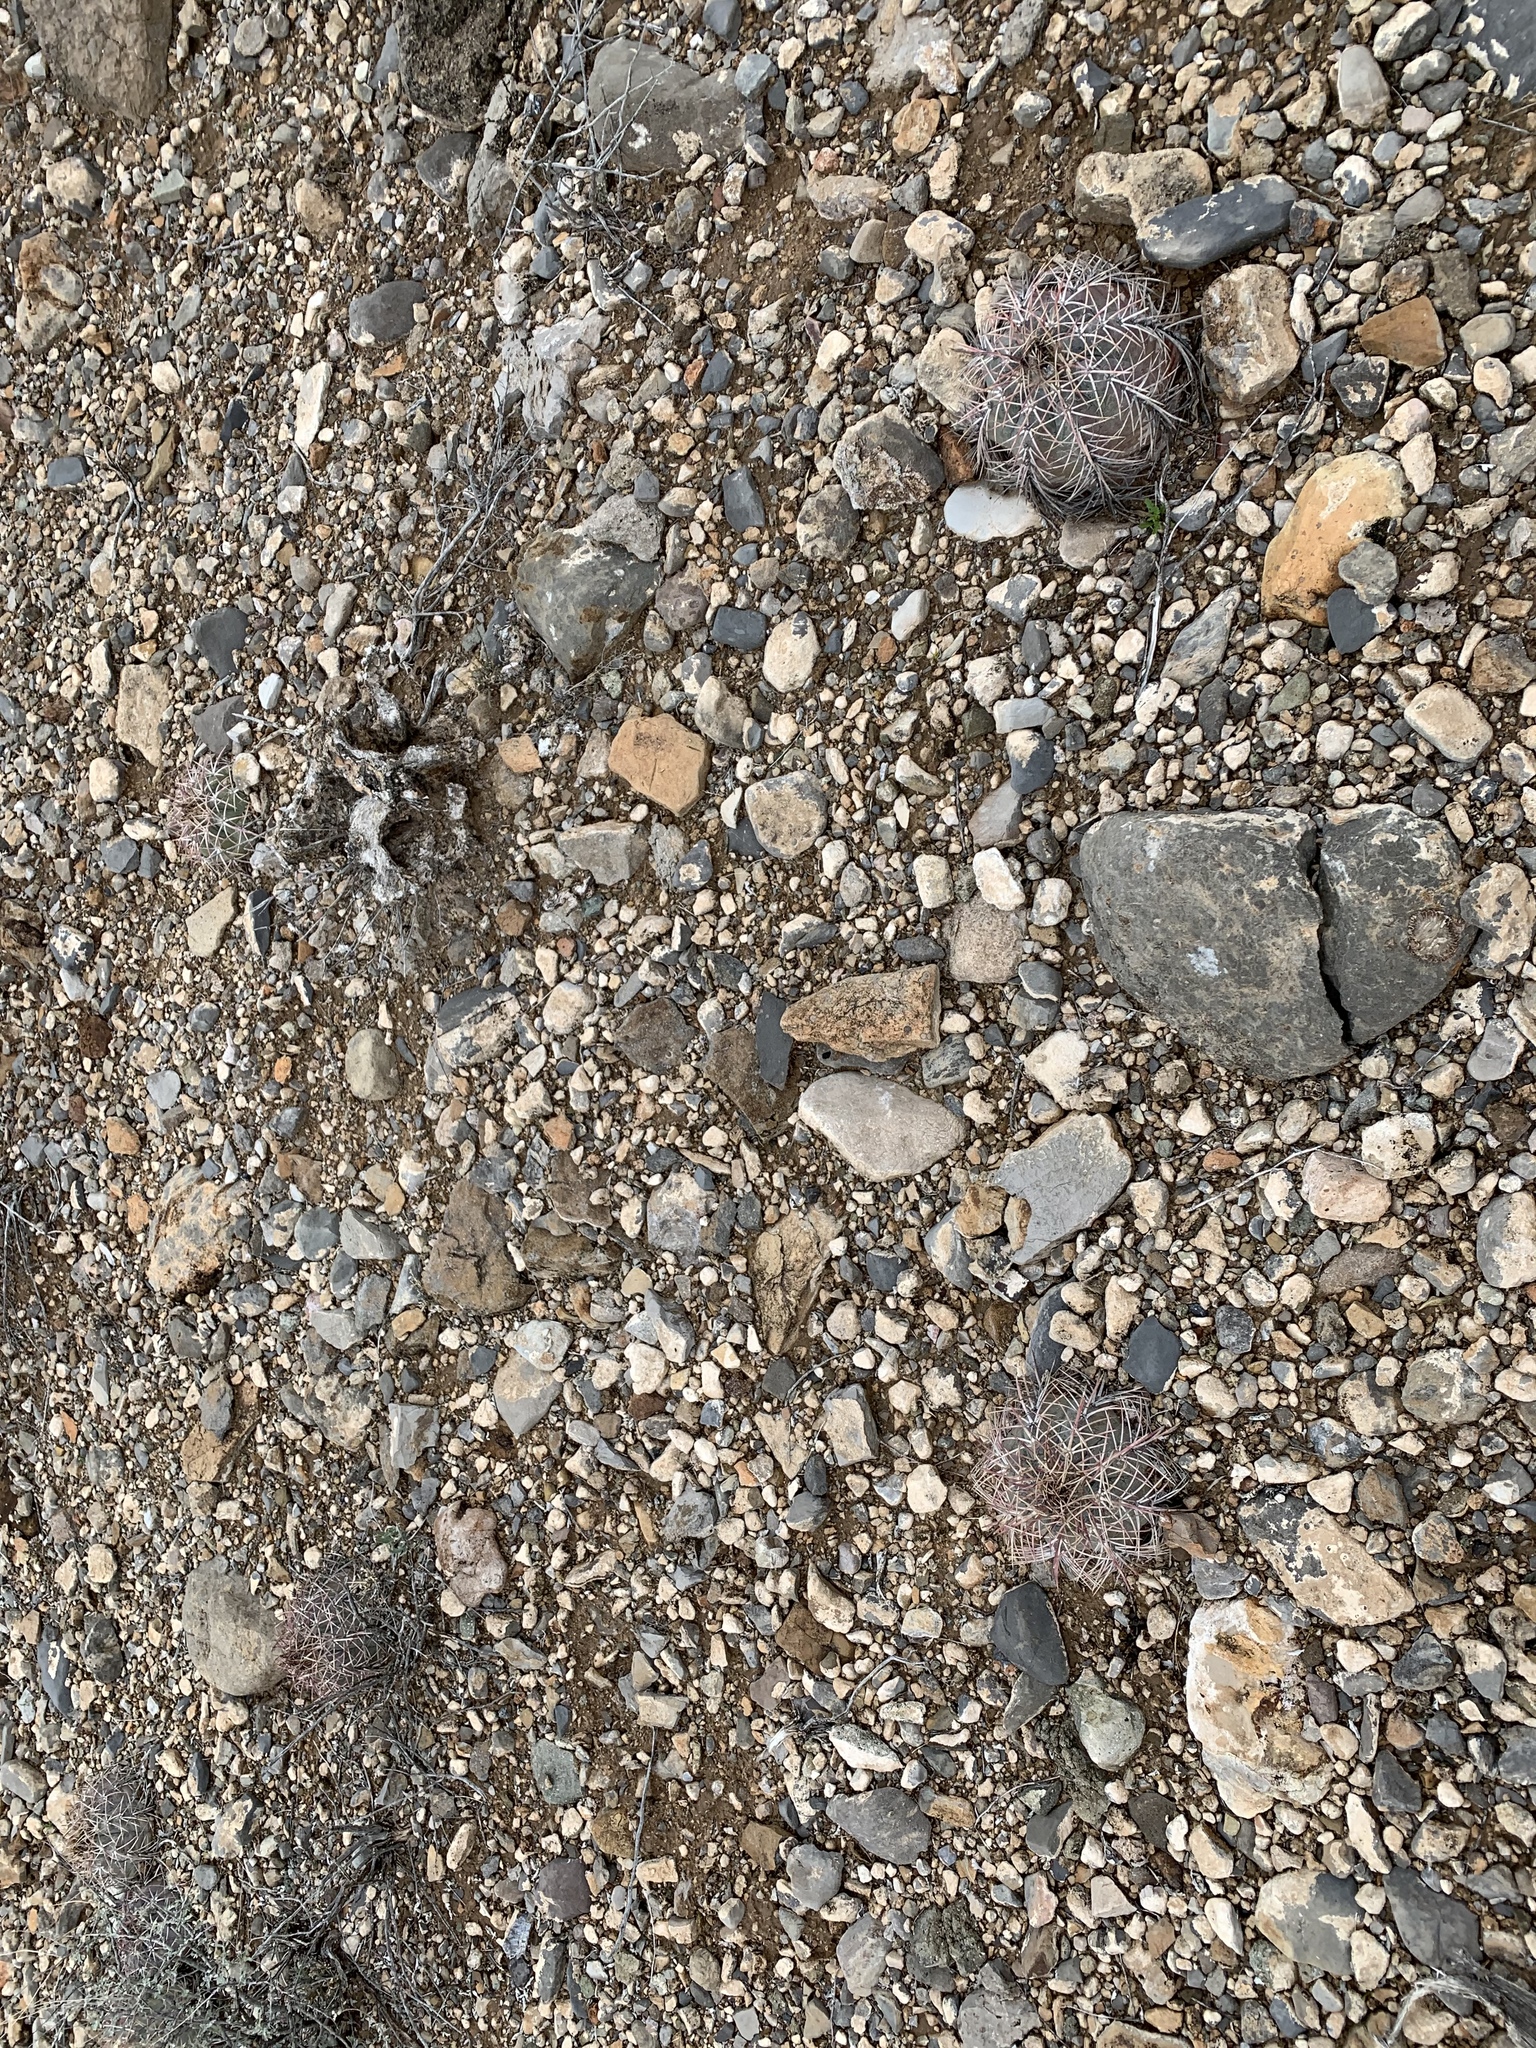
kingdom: Plantae
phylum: Tracheophyta
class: Magnoliopsida
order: Caryophyllales
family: Cactaceae
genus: Echinocactus
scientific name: Echinocactus horizonthalonius
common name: Devilshead
